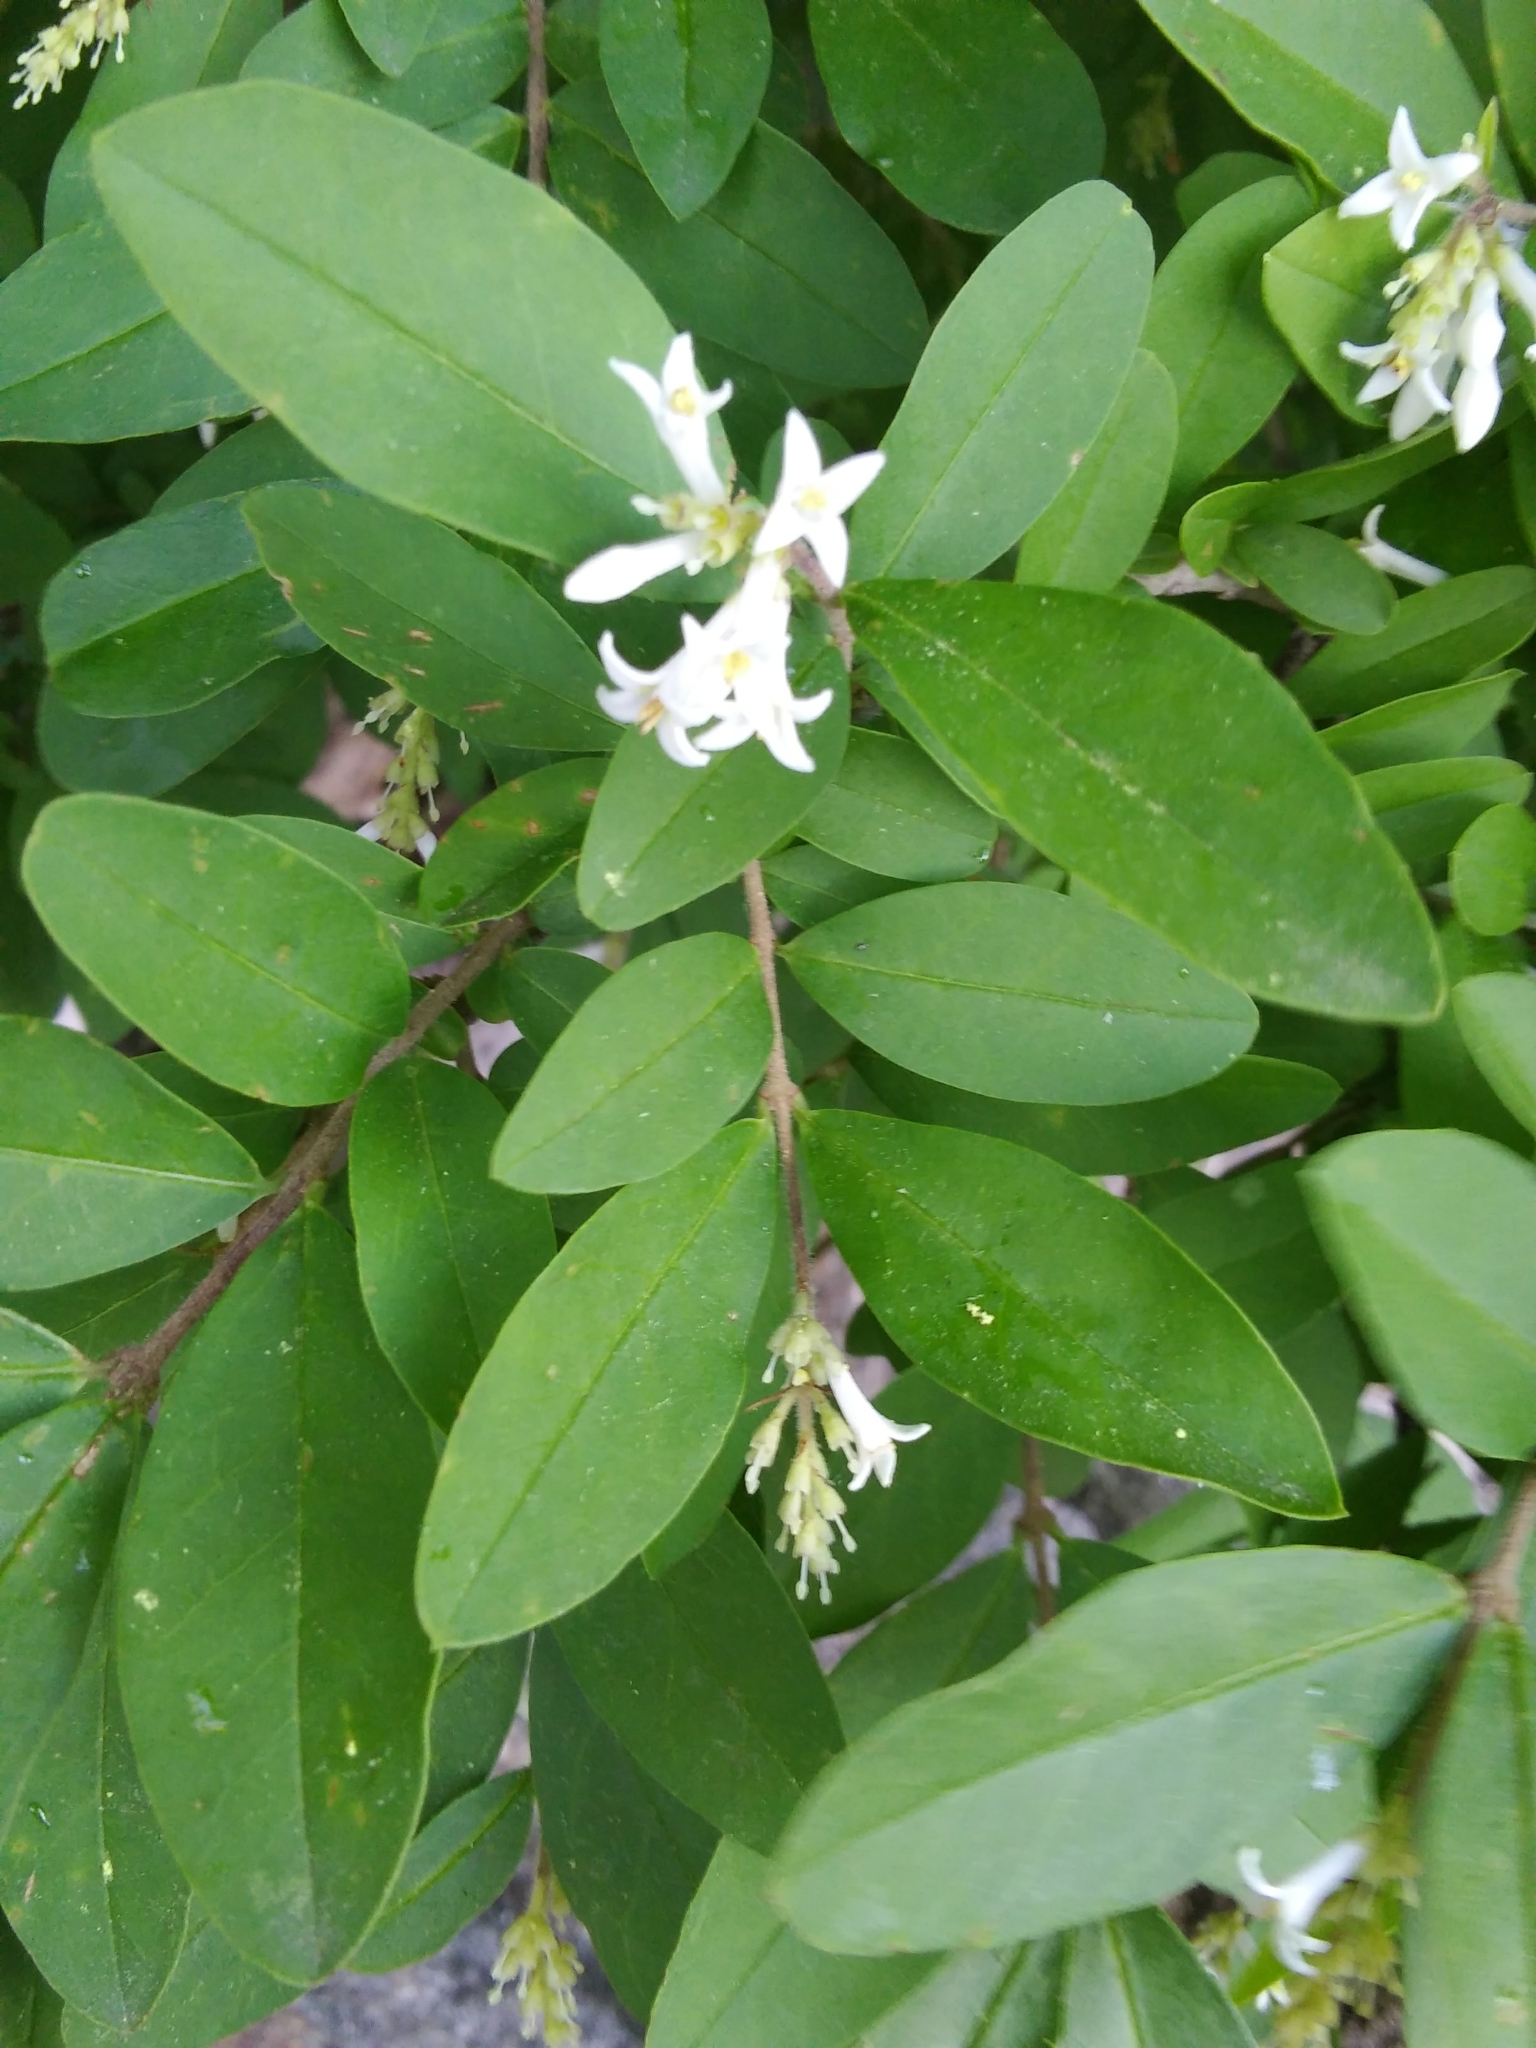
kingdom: Plantae
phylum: Tracheophyta
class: Magnoliopsida
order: Lamiales
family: Oleaceae
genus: Ligustrum
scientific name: Ligustrum obtusifolium
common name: Border privet
